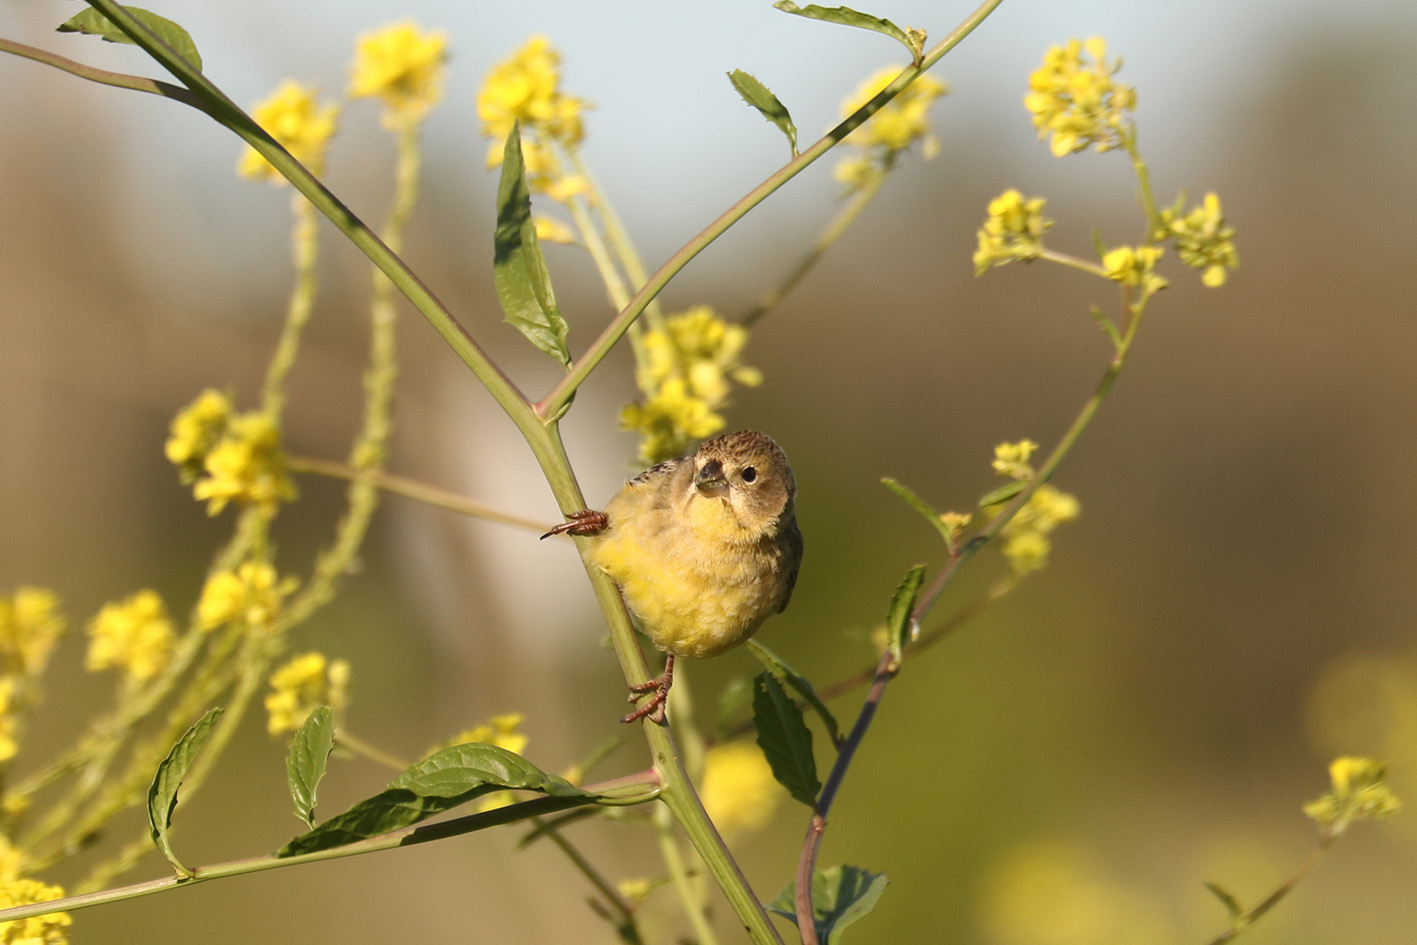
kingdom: Animalia
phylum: Chordata
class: Aves
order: Passeriformes
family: Thraupidae
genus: Sicalis
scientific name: Sicalis luteola
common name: Grassland yellow-finch
